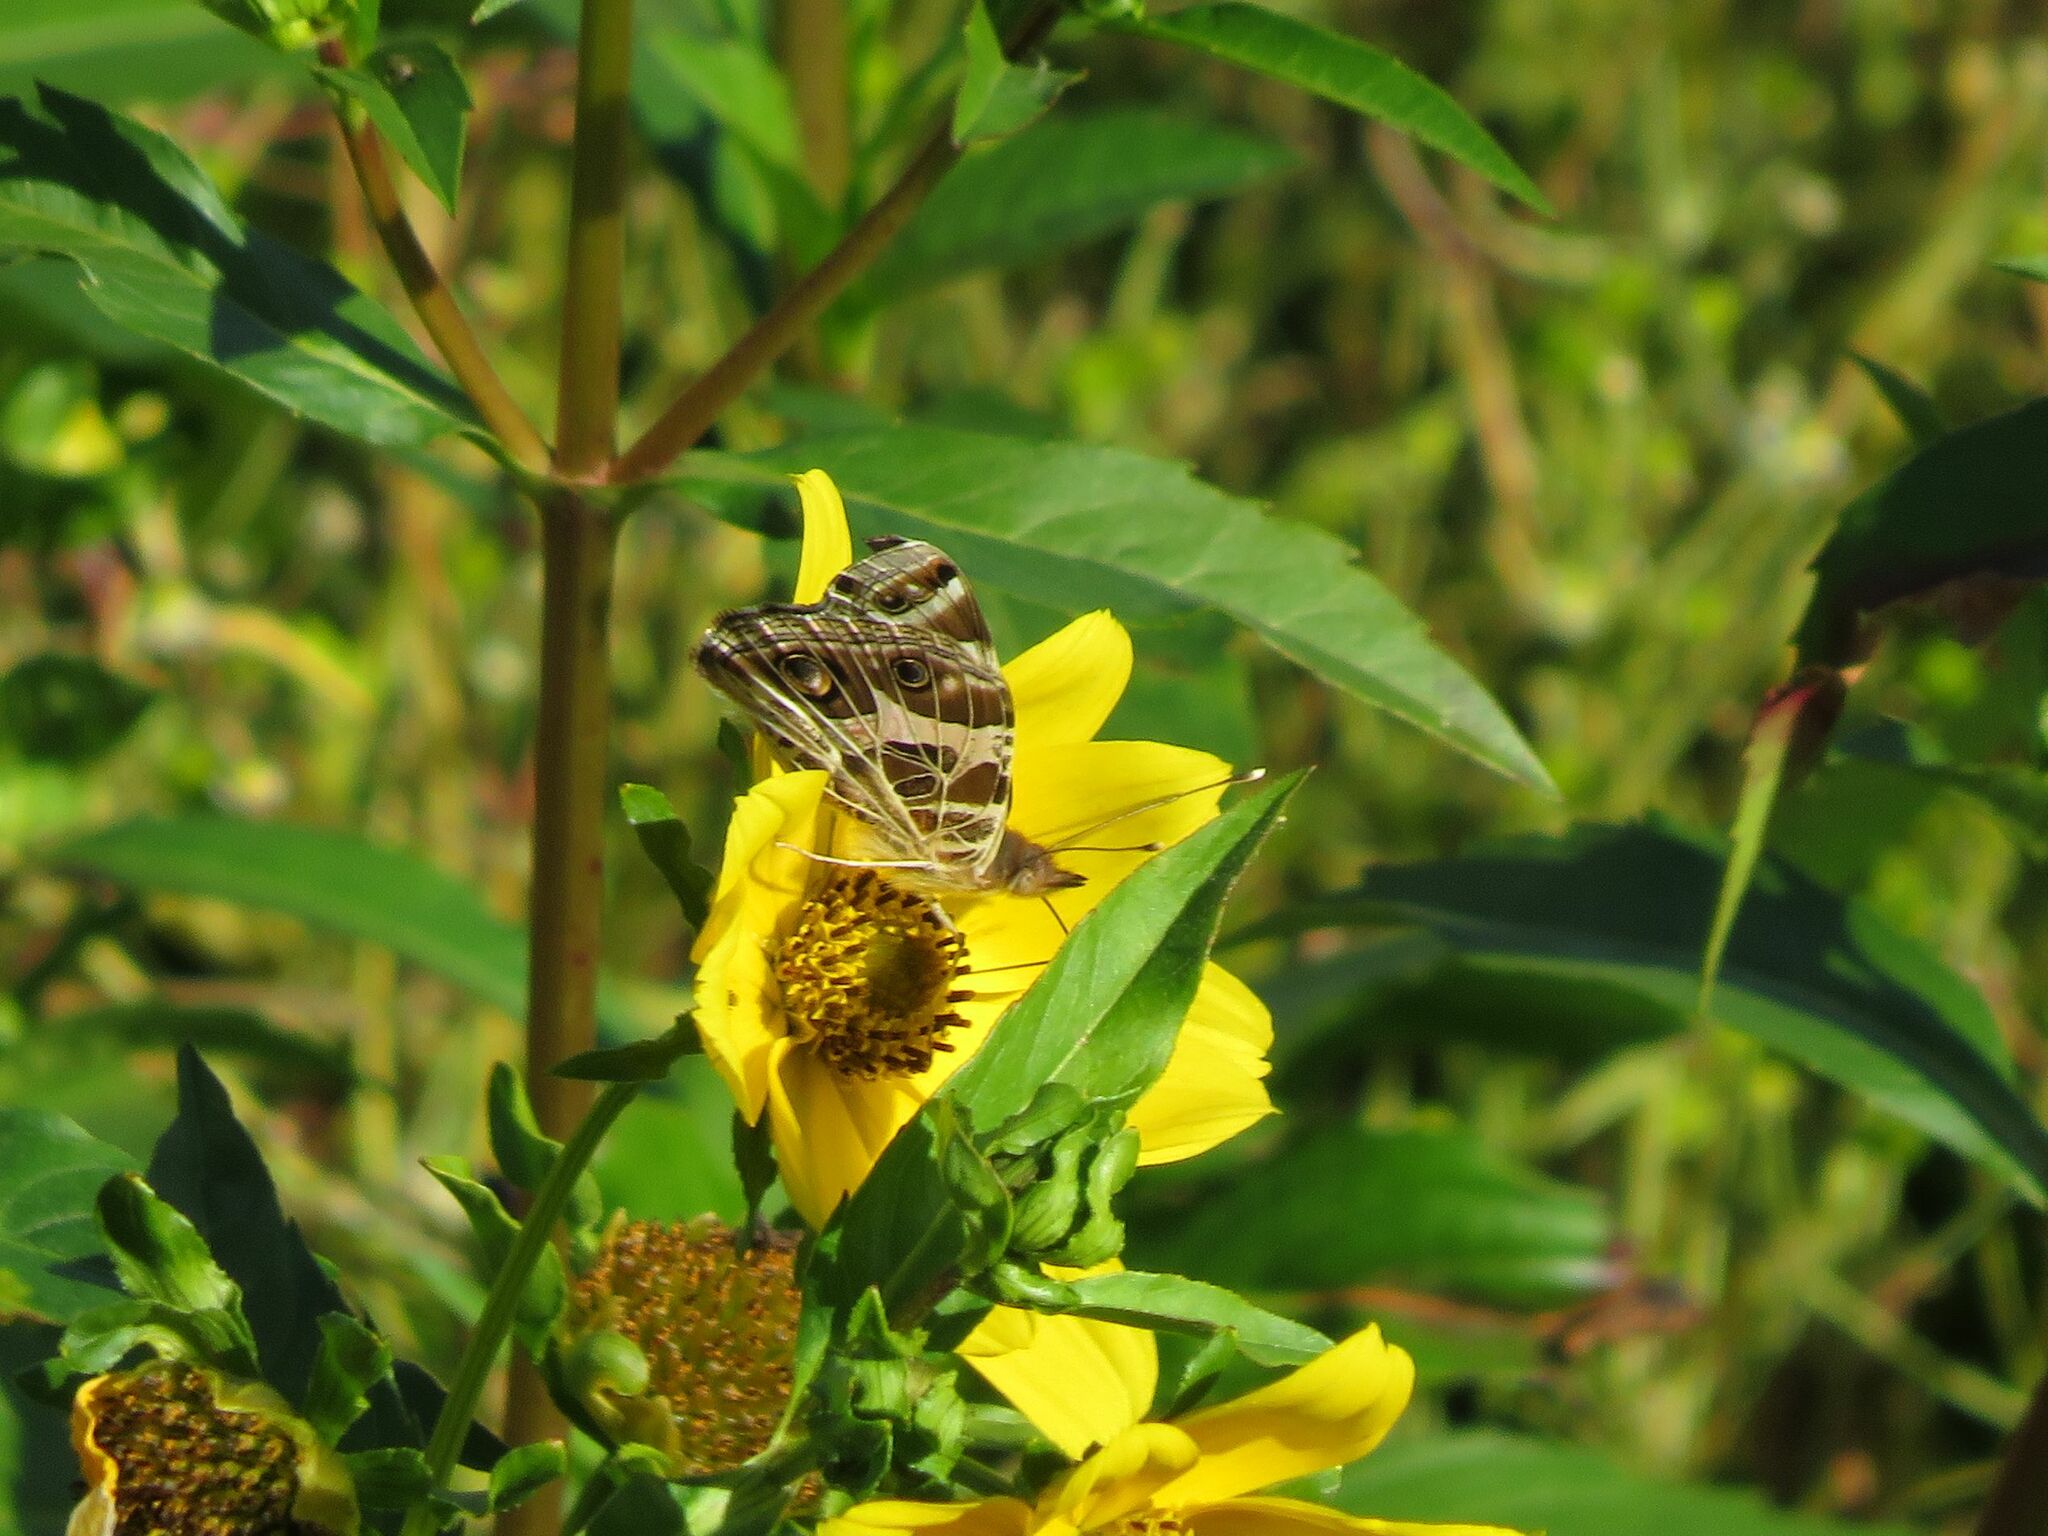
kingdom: Animalia
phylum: Arthropoda
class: Insecta
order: Lepidoptera
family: Nymphalidae
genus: Vanessa
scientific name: Vanessa braziliensis
